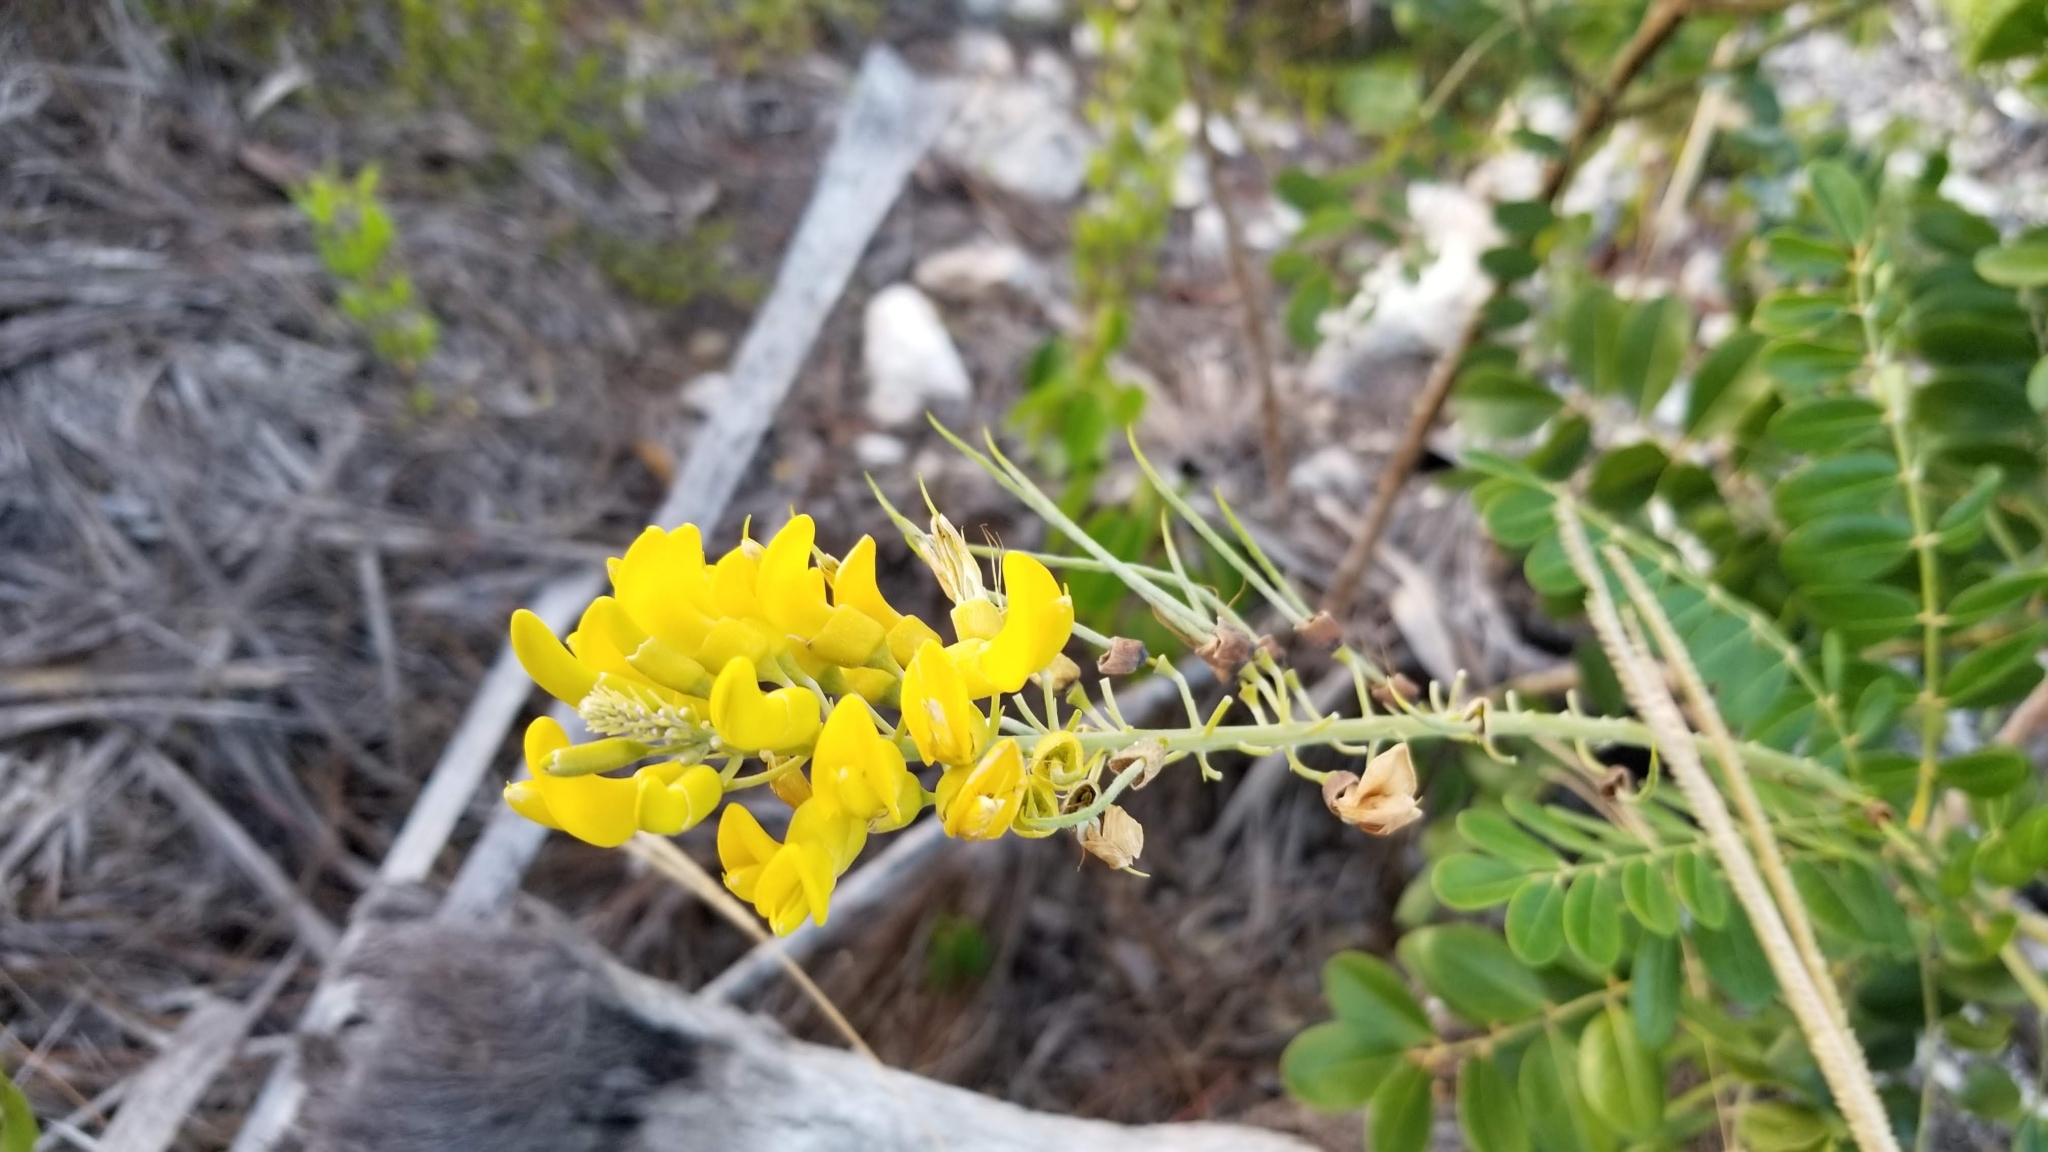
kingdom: Plantae
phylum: Tracheophyta
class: Magnoliopsida
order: Fabales
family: Fabaceae
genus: Sophora
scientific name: Sophora tomentosa
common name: Yellow necklacepod
